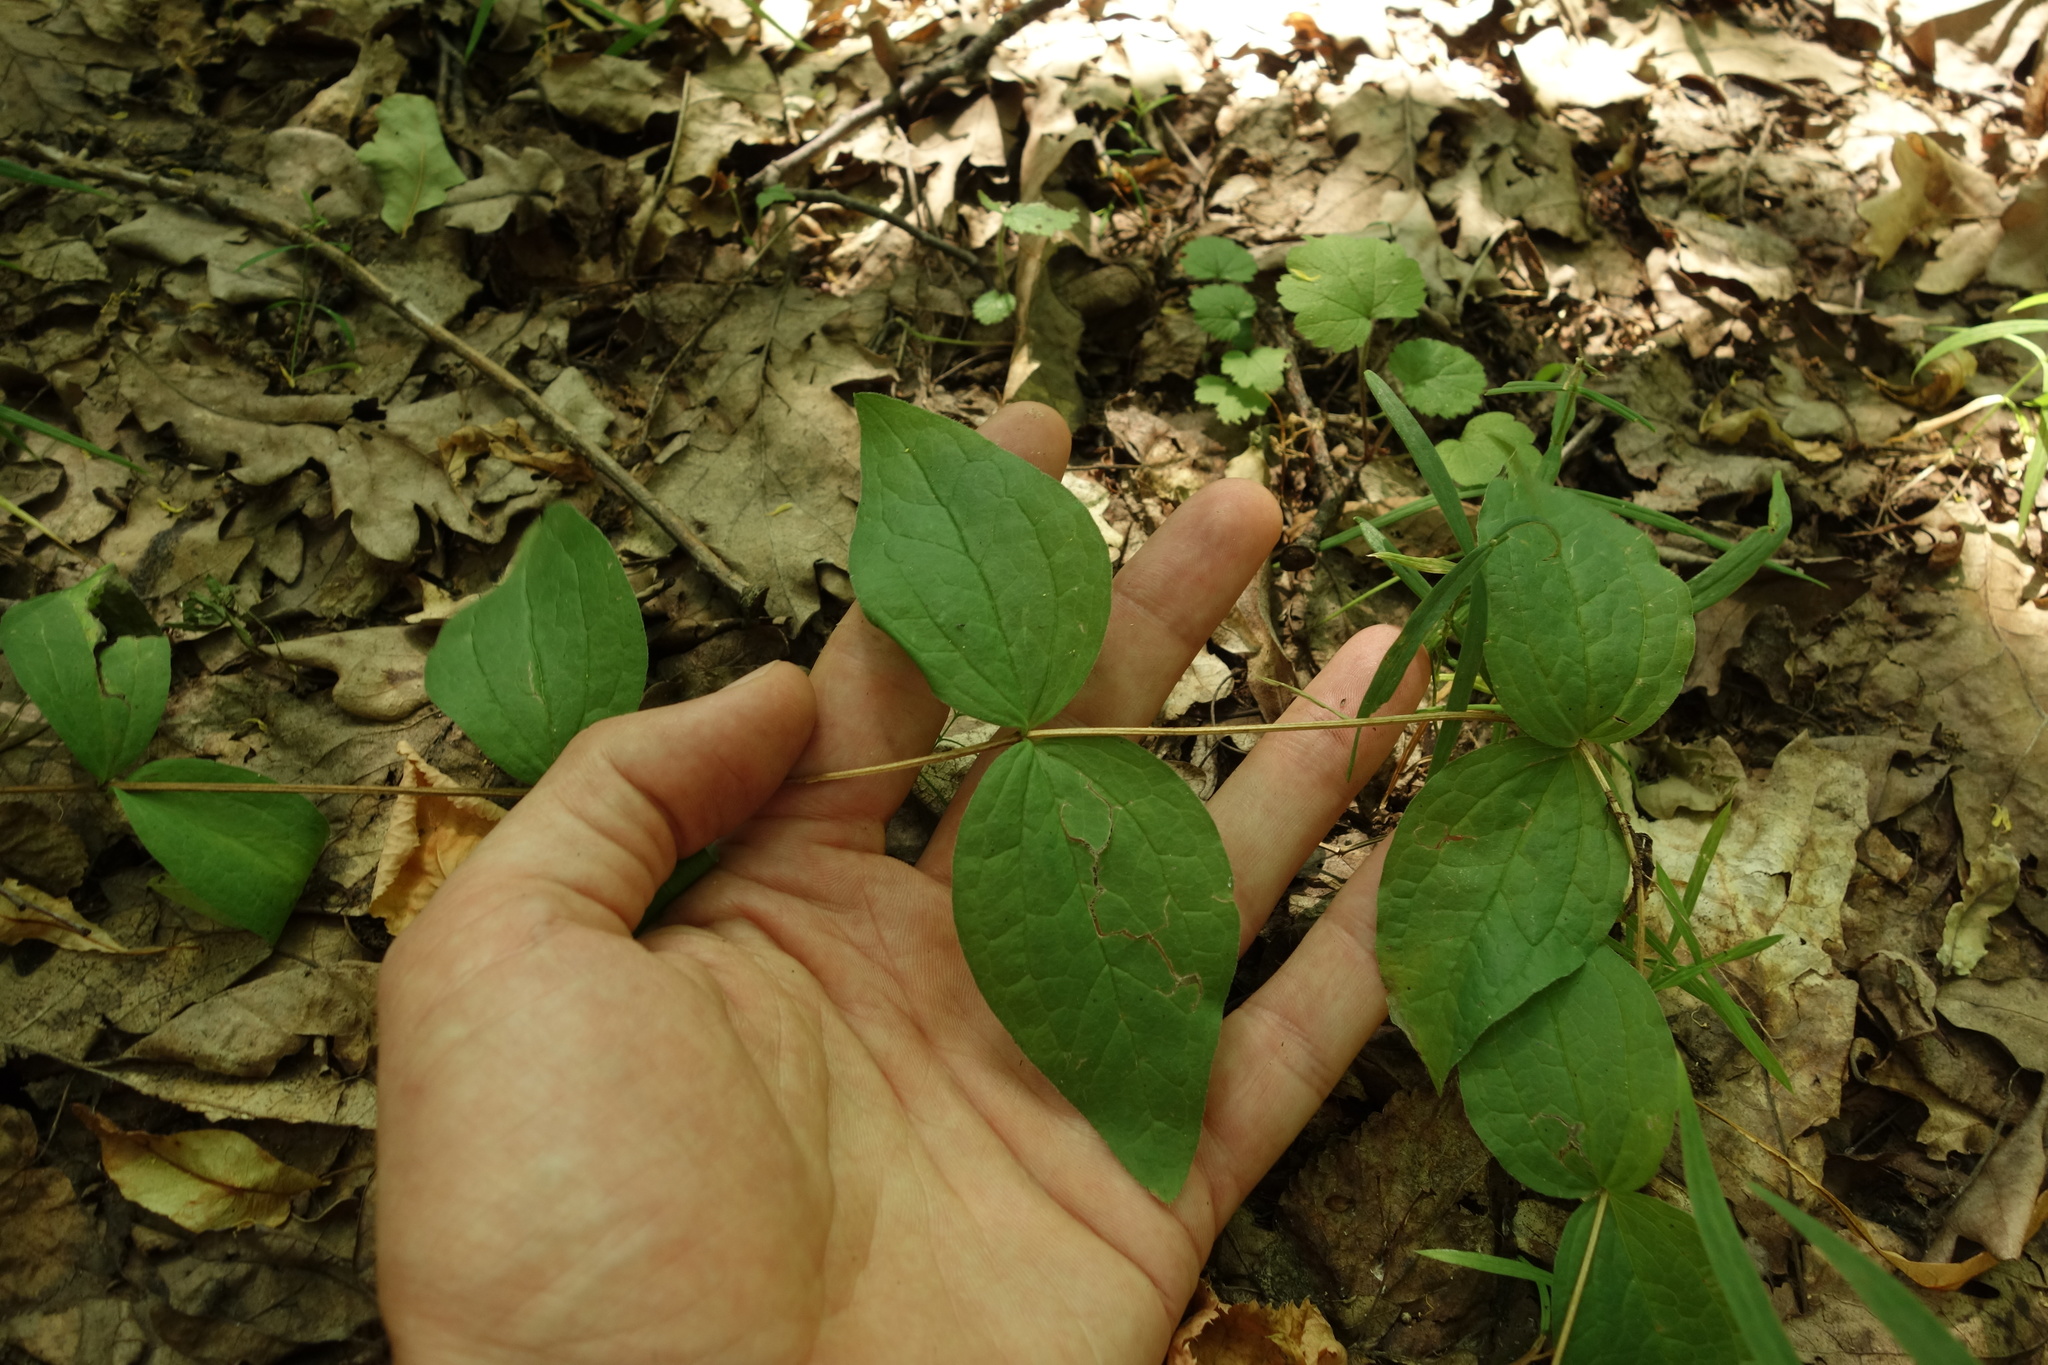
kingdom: Plantae
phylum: Tracheophyta
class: Magnoliopsida
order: Ranunculales
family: Ranunculaceae
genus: Clematis
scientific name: Clematis integrifolia
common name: Solitary clematis
